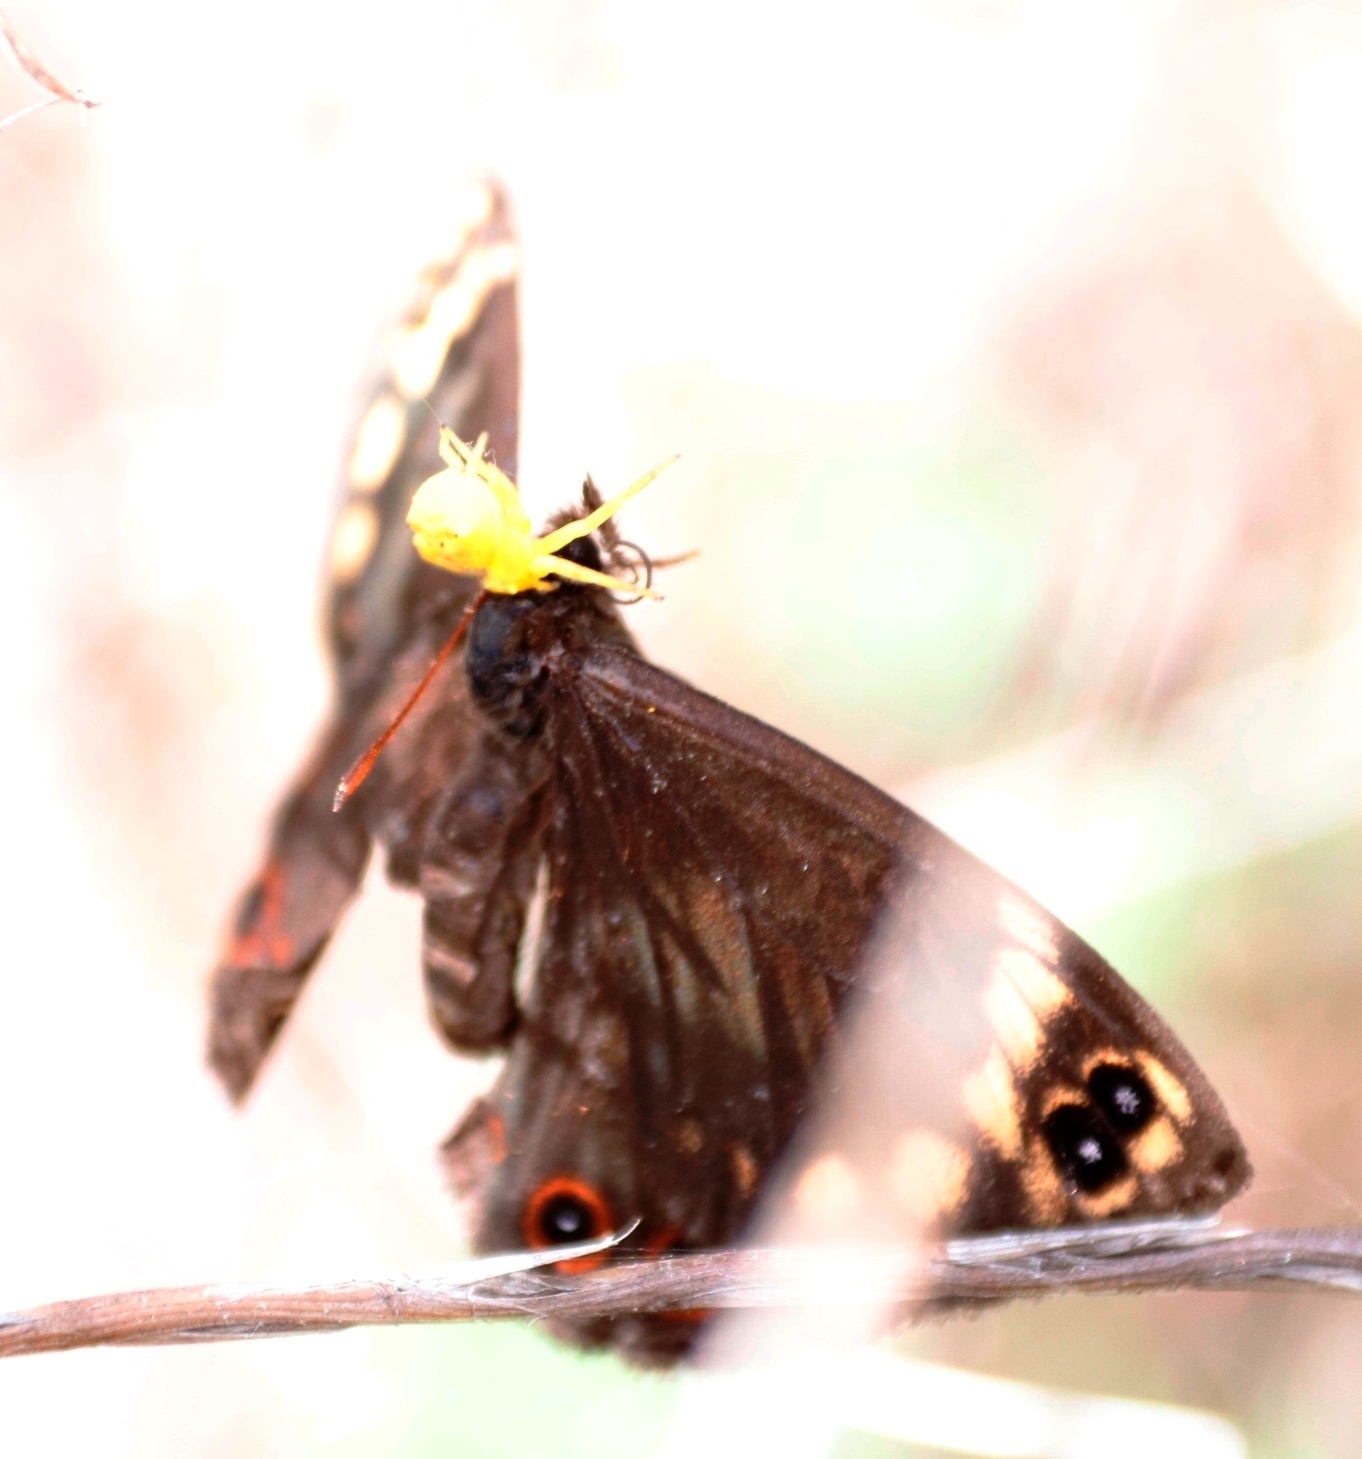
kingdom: Animalia
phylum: Arthropoda
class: Insecta
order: Lepidoptera
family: Nymphalidae
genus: Dira
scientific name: Dira clytus
